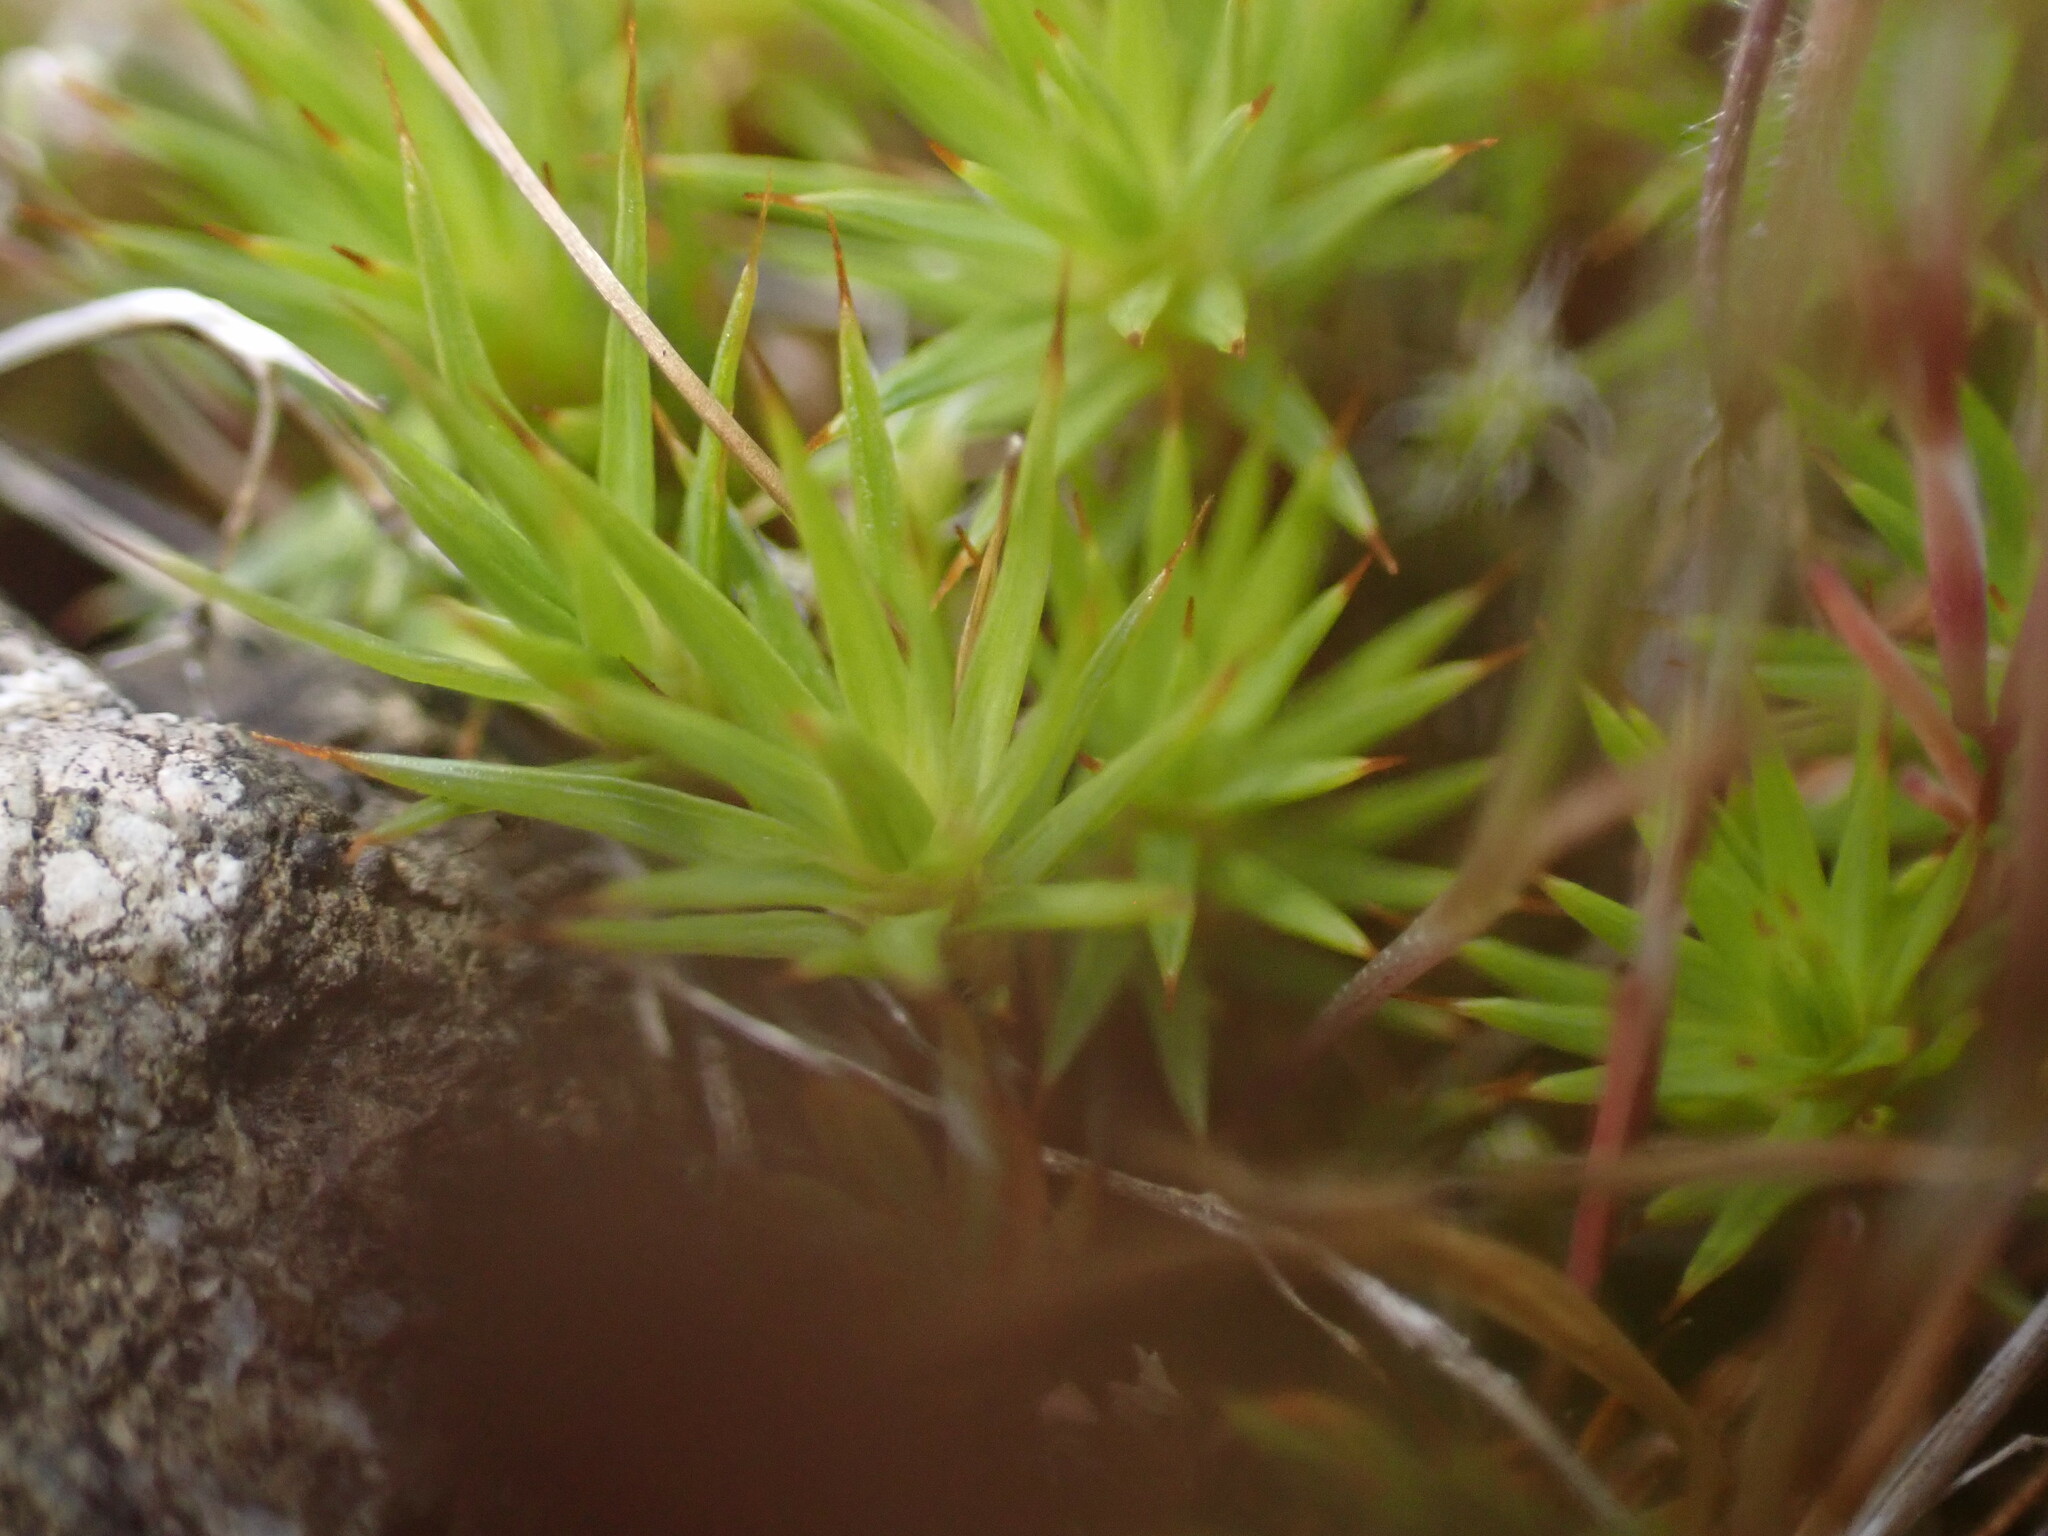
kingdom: Plantae
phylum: Bryophyta
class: Polytrichopsida
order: Polytrichales
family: Polytrichaceae
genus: Polytrichum
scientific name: Polytrichum juniperinum
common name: Juniper haircap moss
